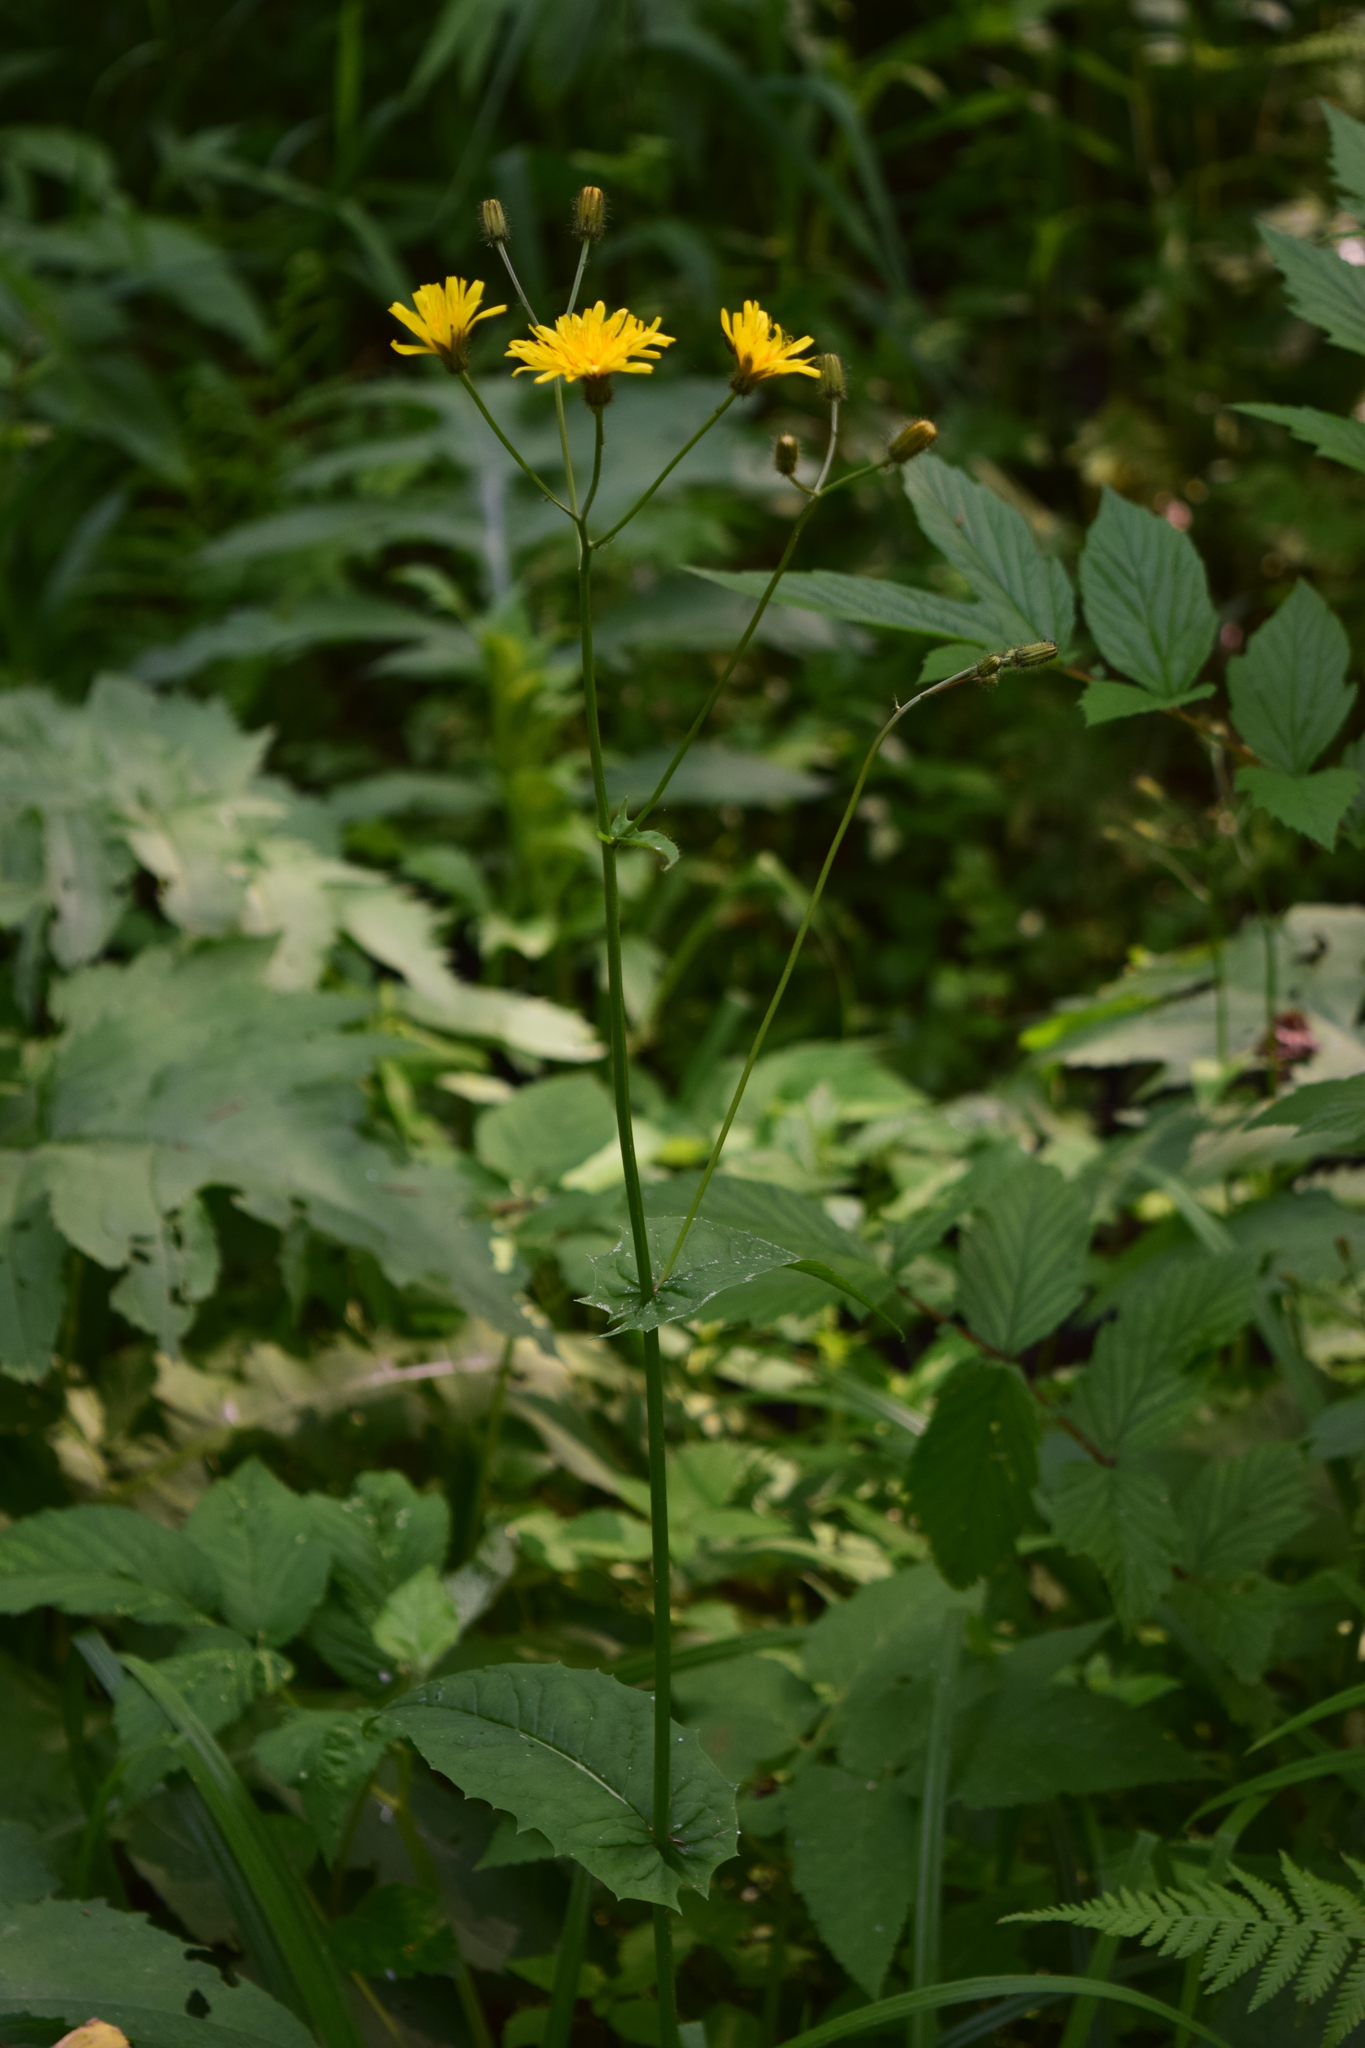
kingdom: Plantae
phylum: Tracheophyta
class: Magnoliopsida
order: Asterales
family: Asteraceae
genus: Crepis
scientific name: Crepis paludosa
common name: Marsh hawk's-beard
